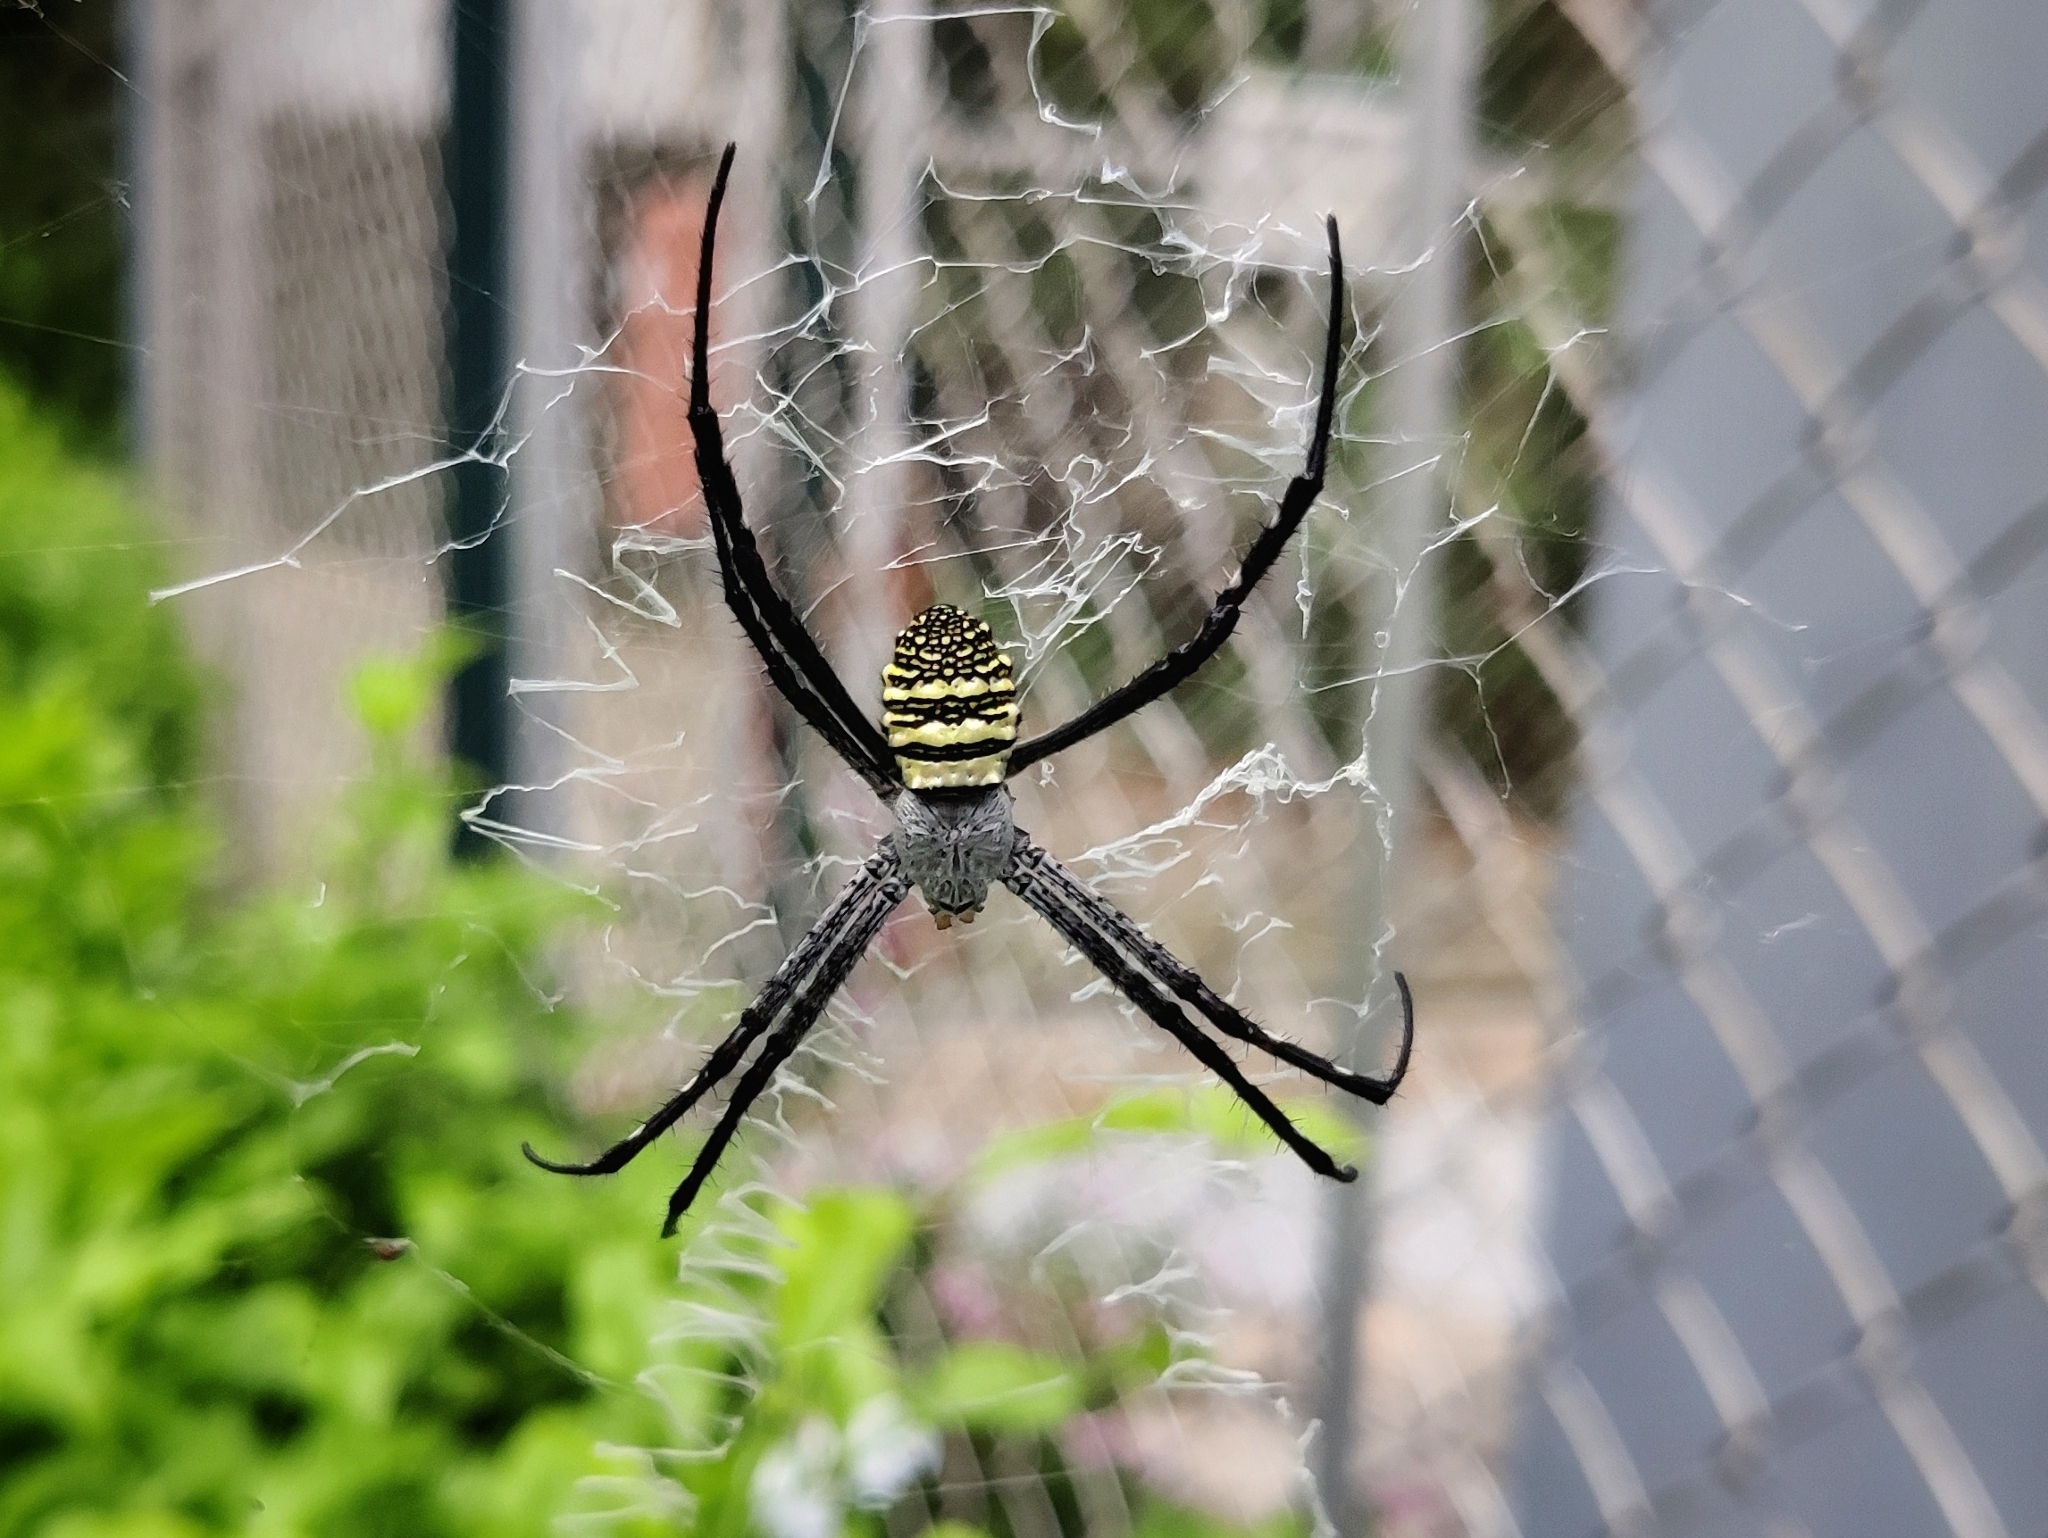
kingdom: Animalia
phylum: Arthropoda
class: Arachnida
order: Araneae
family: Araneidae
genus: Argiope
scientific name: Argiope aemula
